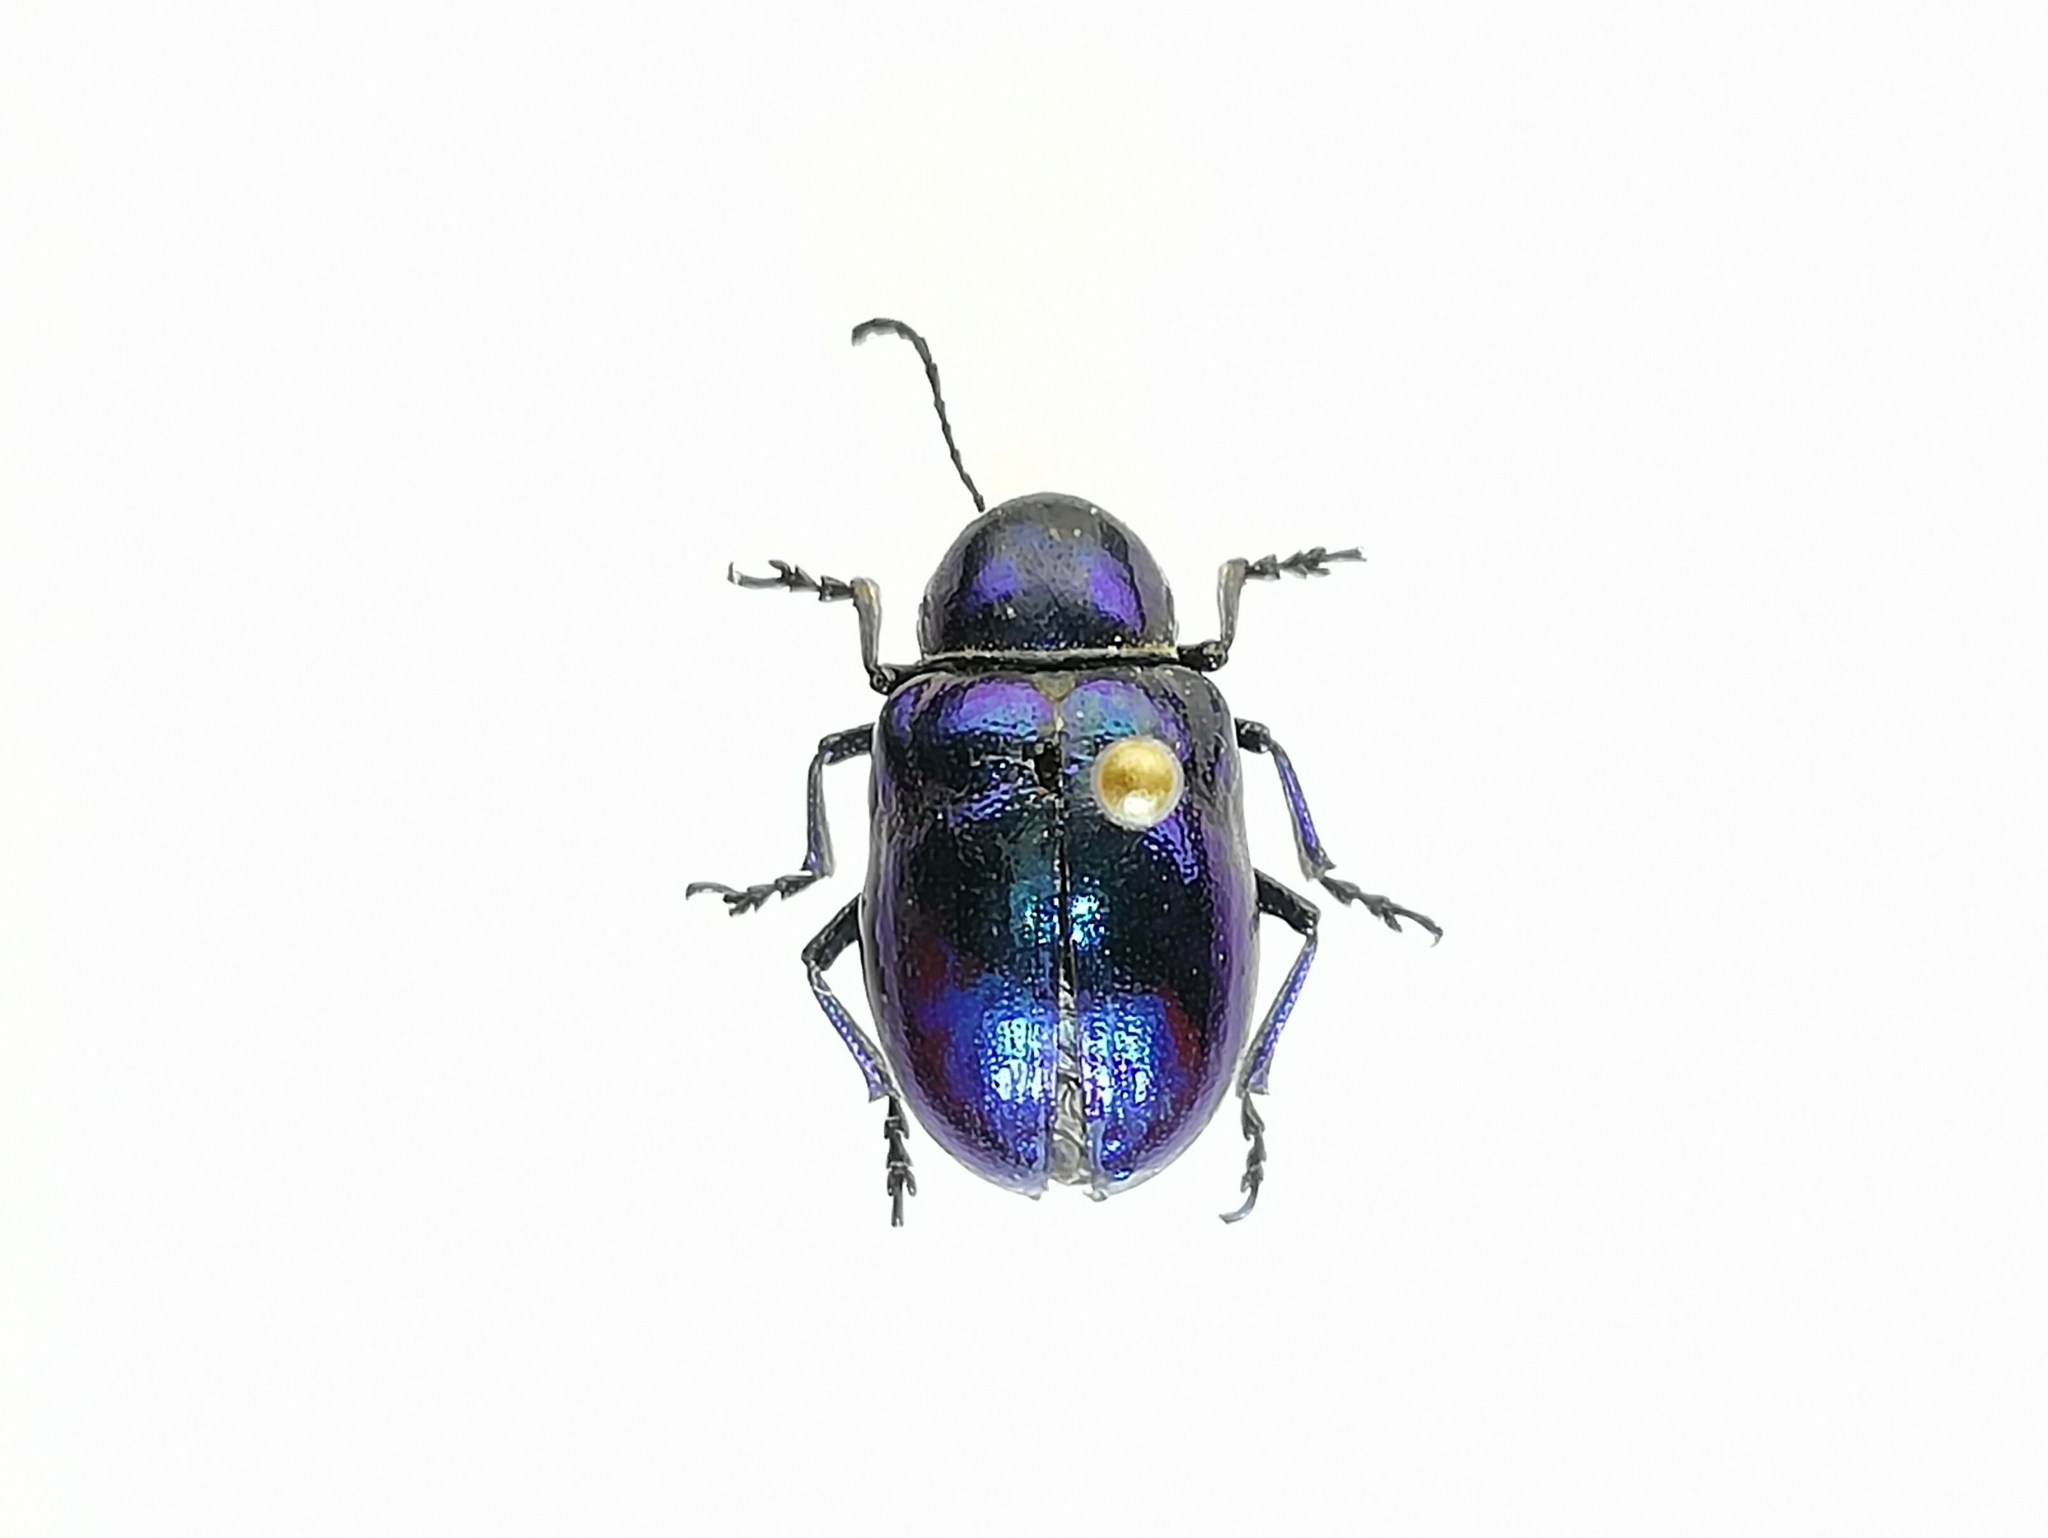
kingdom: Animalia
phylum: Arthropoda
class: Insecta
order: Coleoptera
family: Chrysomelidae
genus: Chrysochus
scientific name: Chrysochus asclepiadeus
